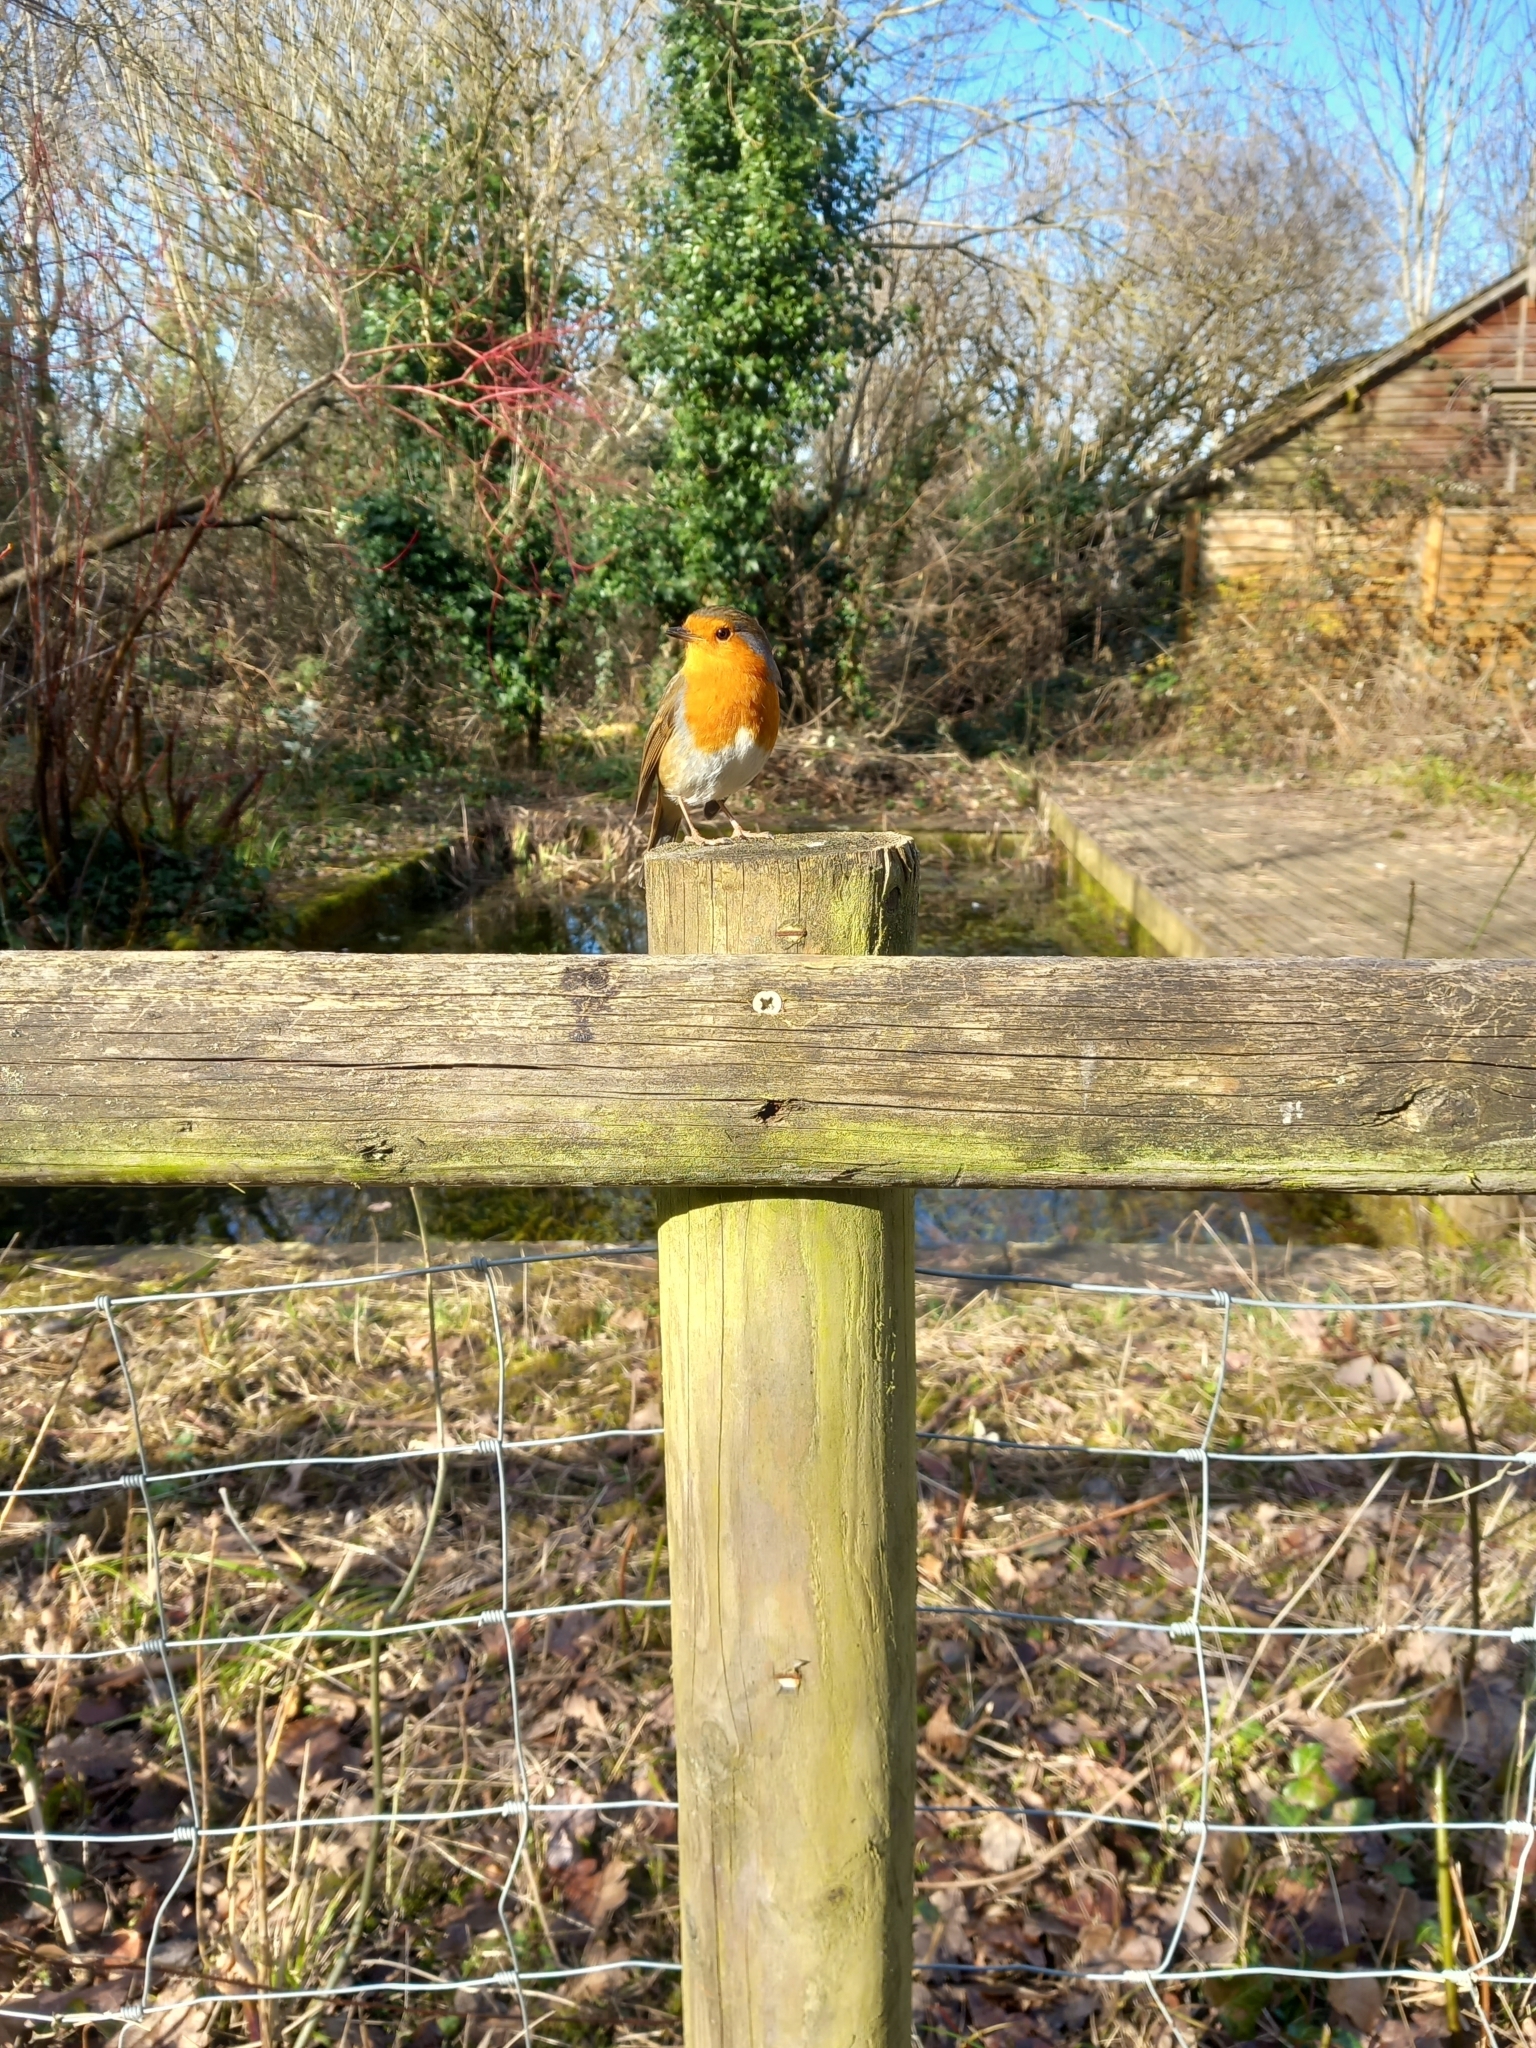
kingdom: Animalia
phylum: Chordata
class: Aves
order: Passeriformes
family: Muscicapidae
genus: Erithacus
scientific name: Erithacus rubecula
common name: European robin
